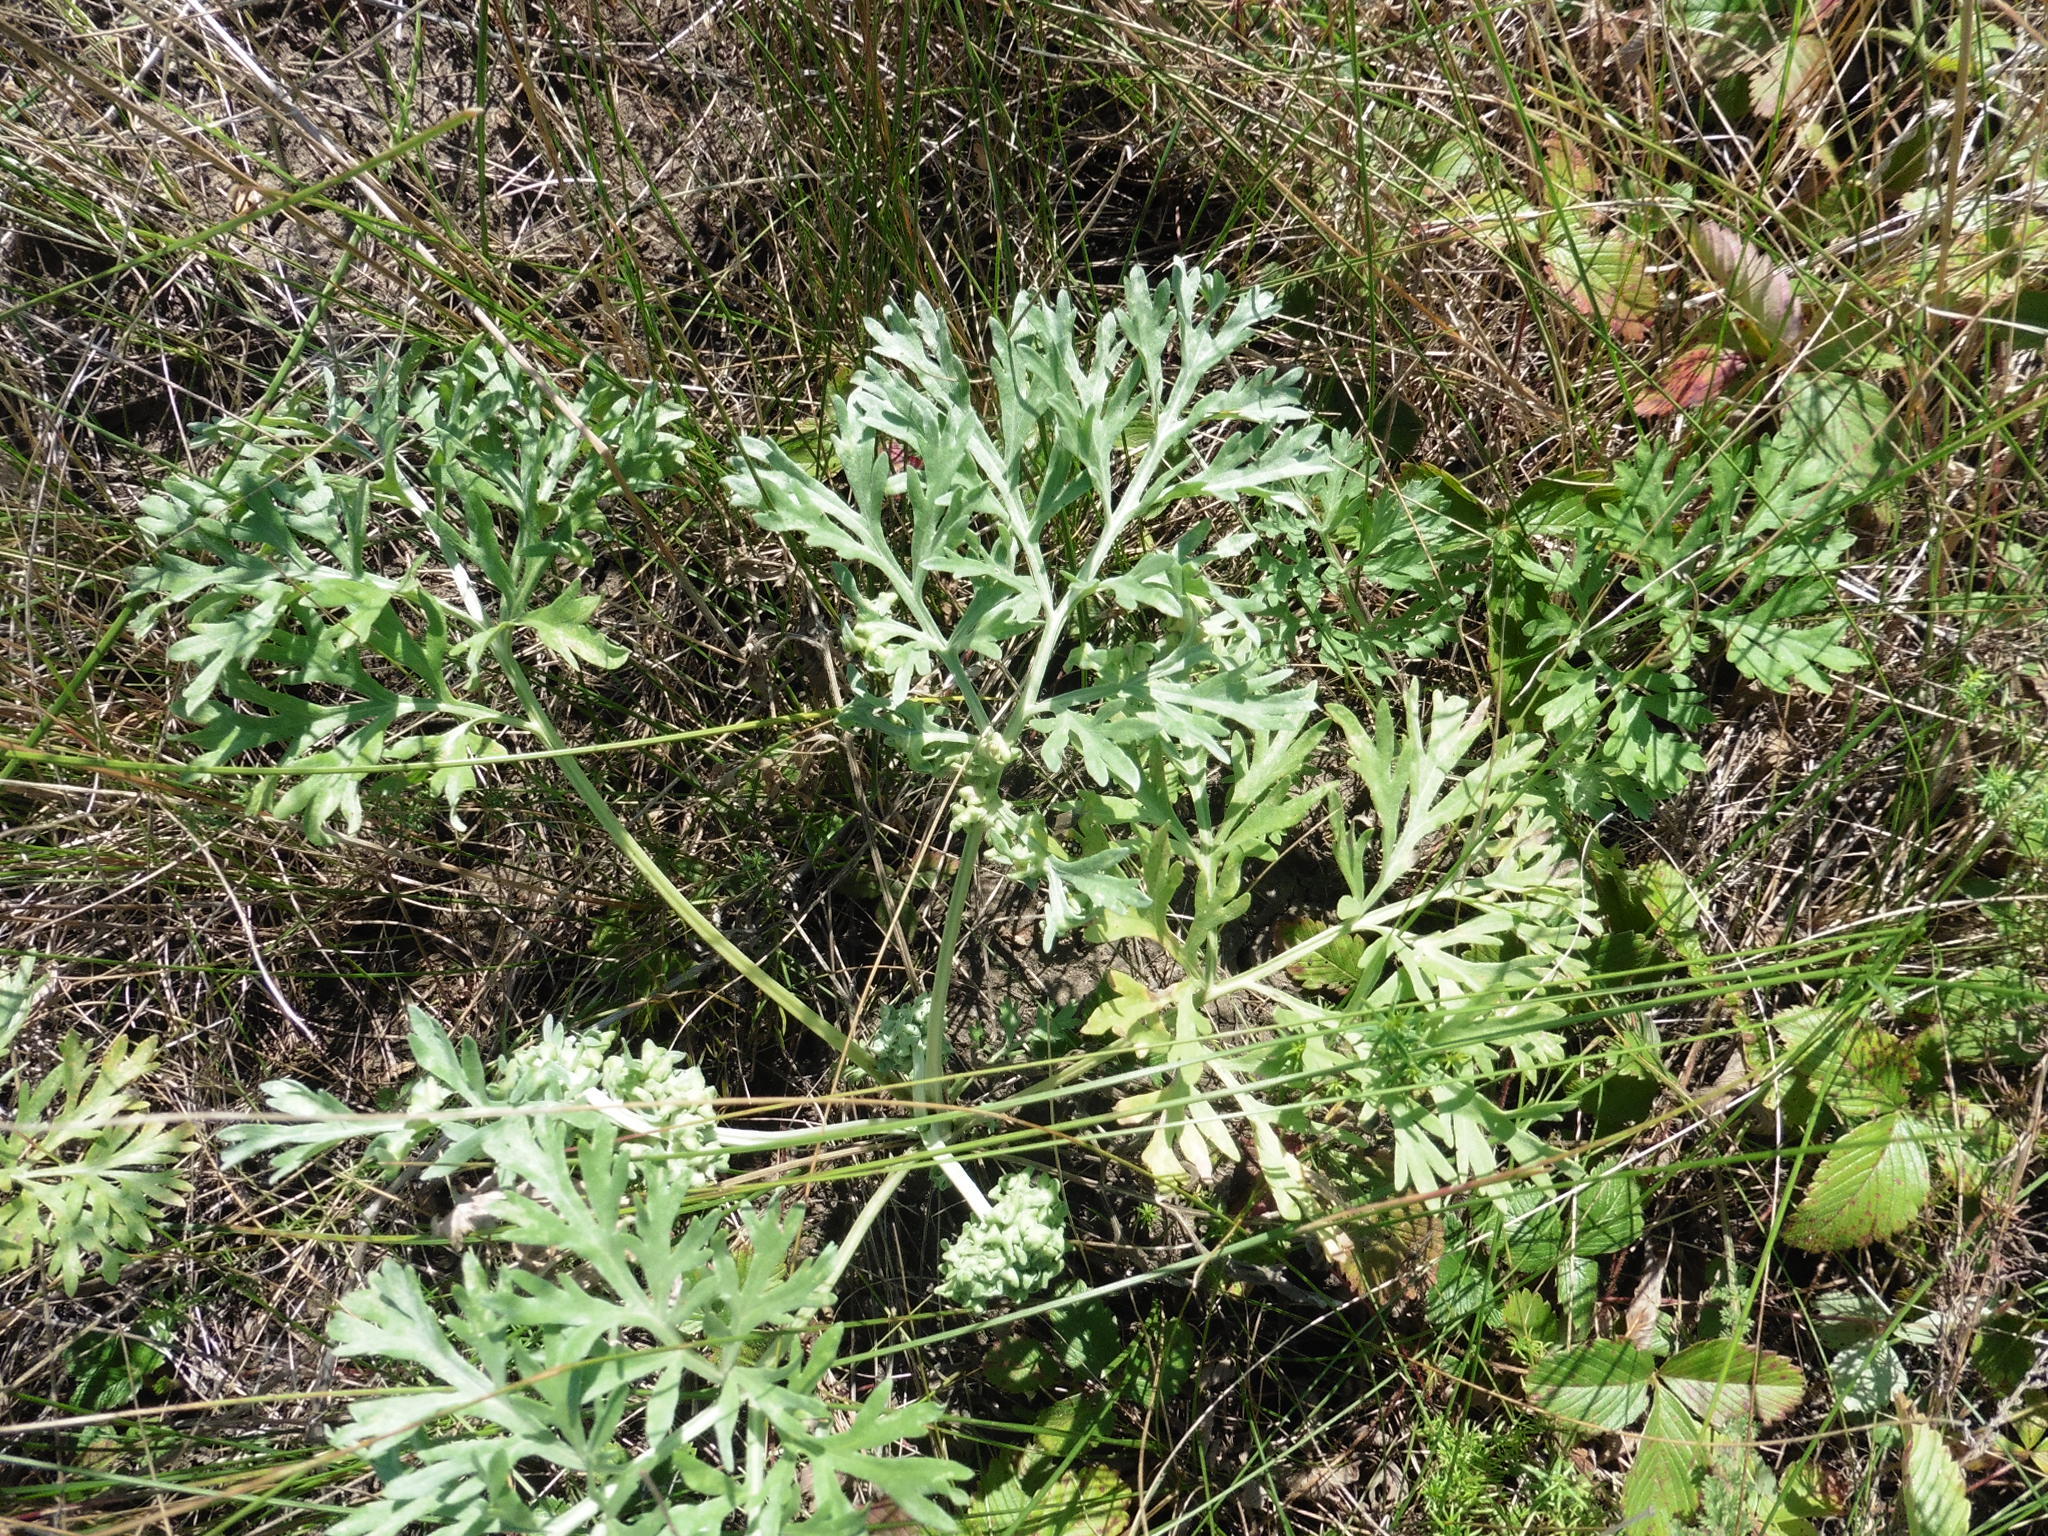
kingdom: Plantae
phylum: Tracheophyta
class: Magnoliopsida
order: Asterales
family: Asteraceae
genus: Artemisia
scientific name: Artemisia absinthium
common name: Wormwood
